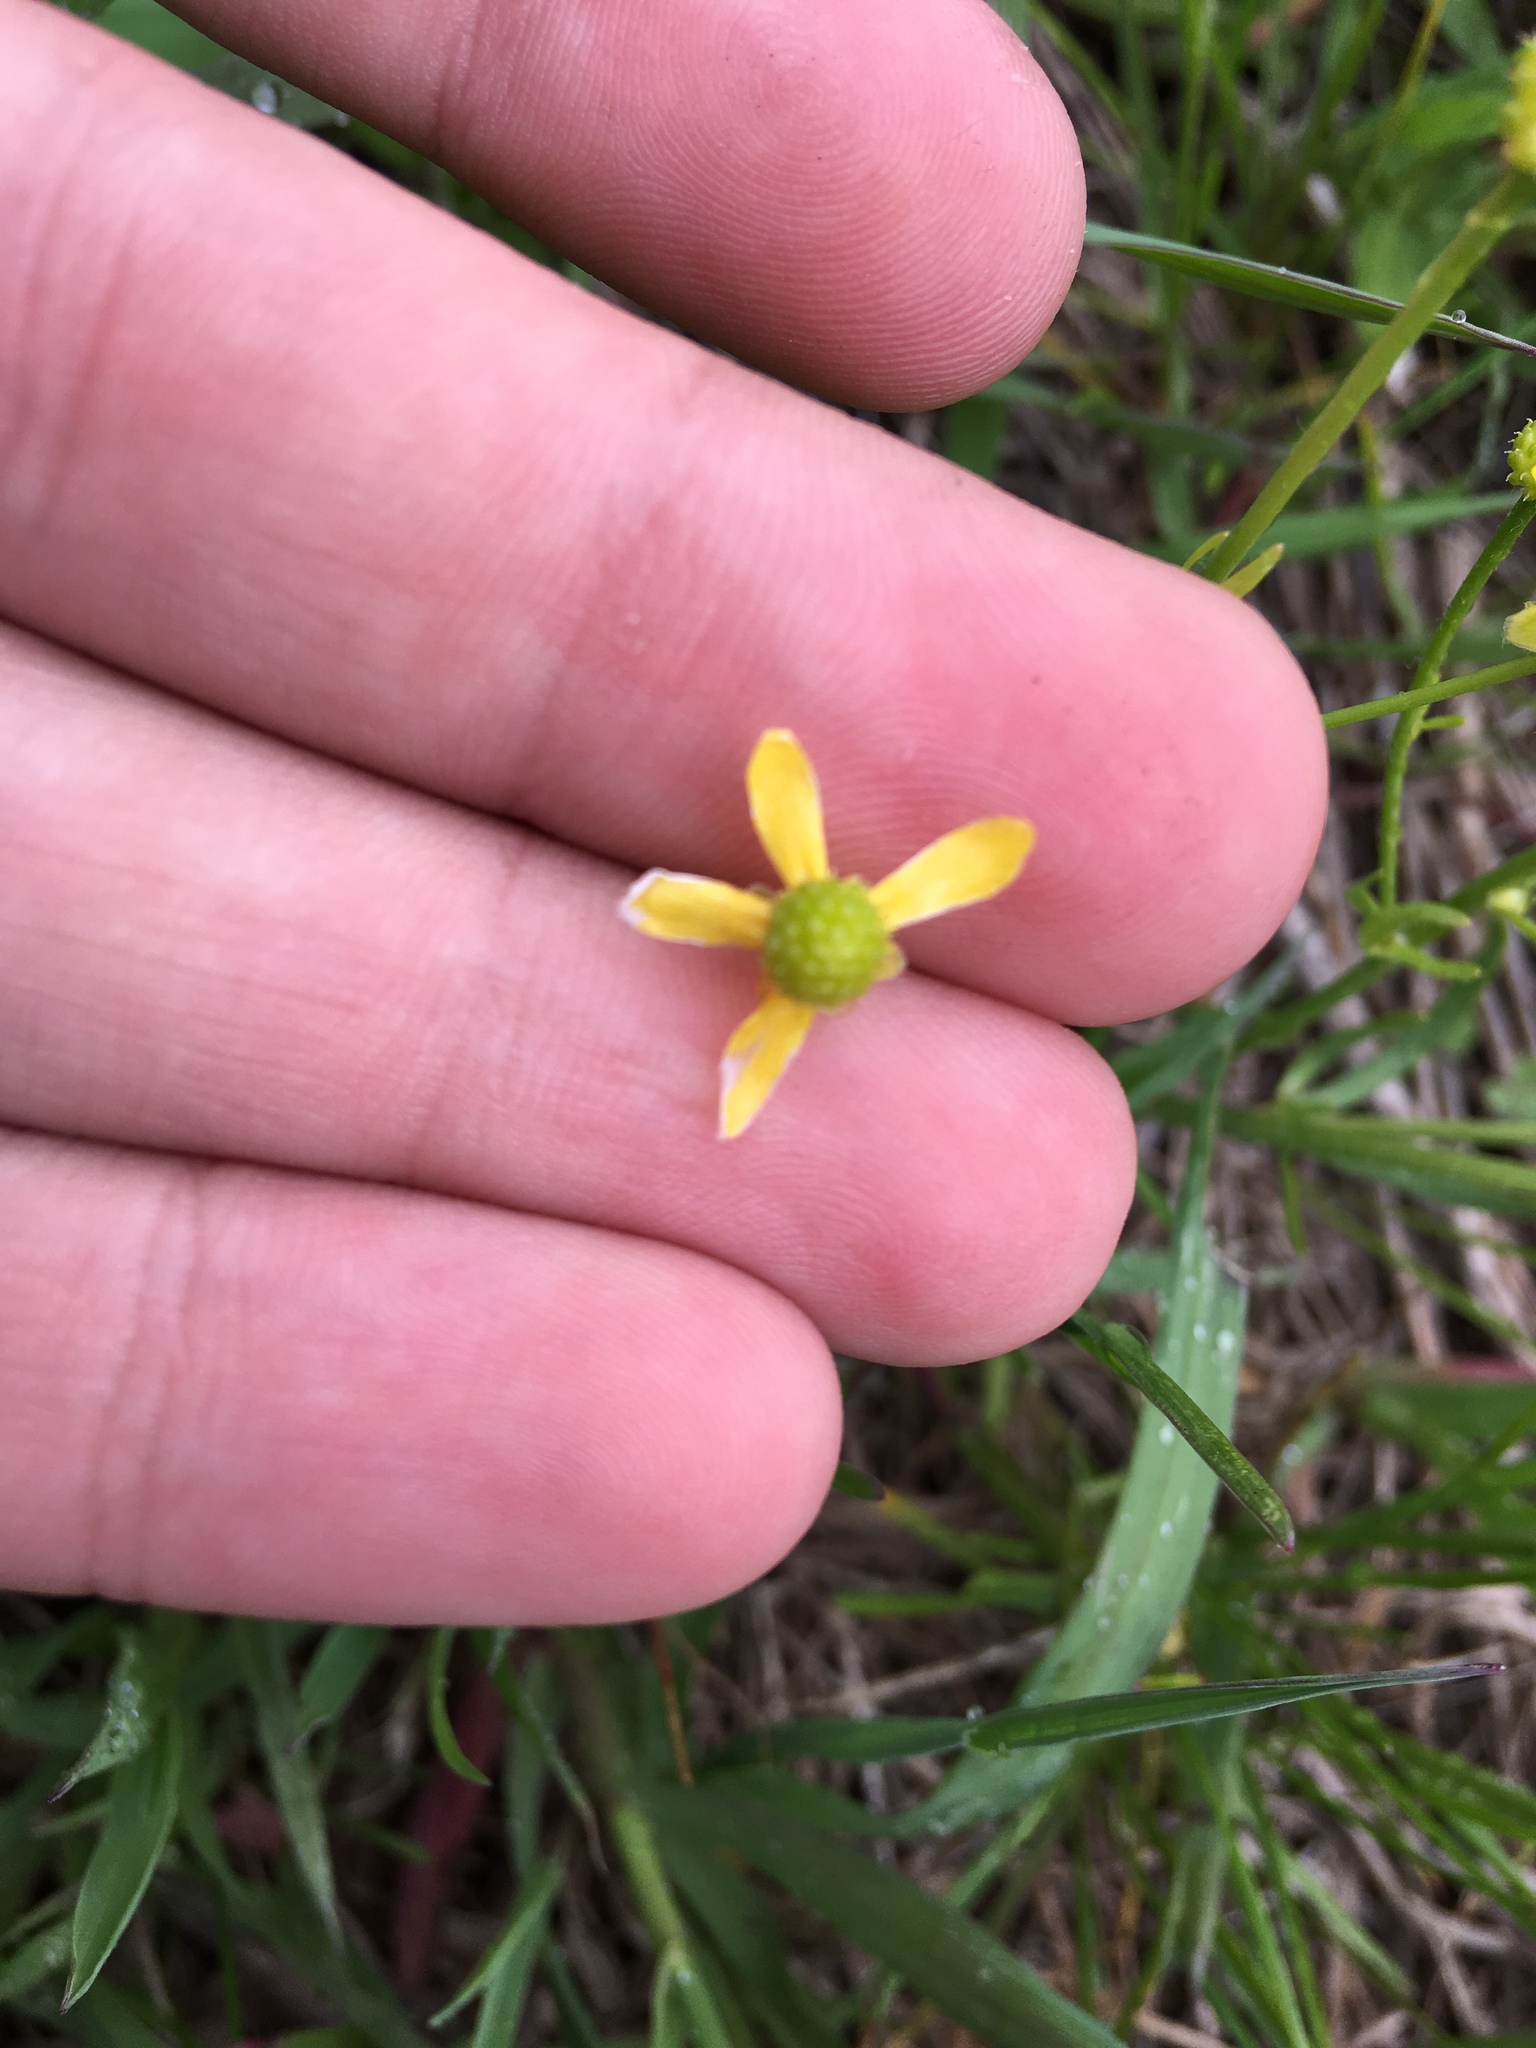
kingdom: Plantae
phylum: Tracheophyta
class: Magnoliopsida
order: Ranunculales
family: Ranunculaceae
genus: Ranunculus
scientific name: Ranunculus rhomboideus
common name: Prairie buttercup
